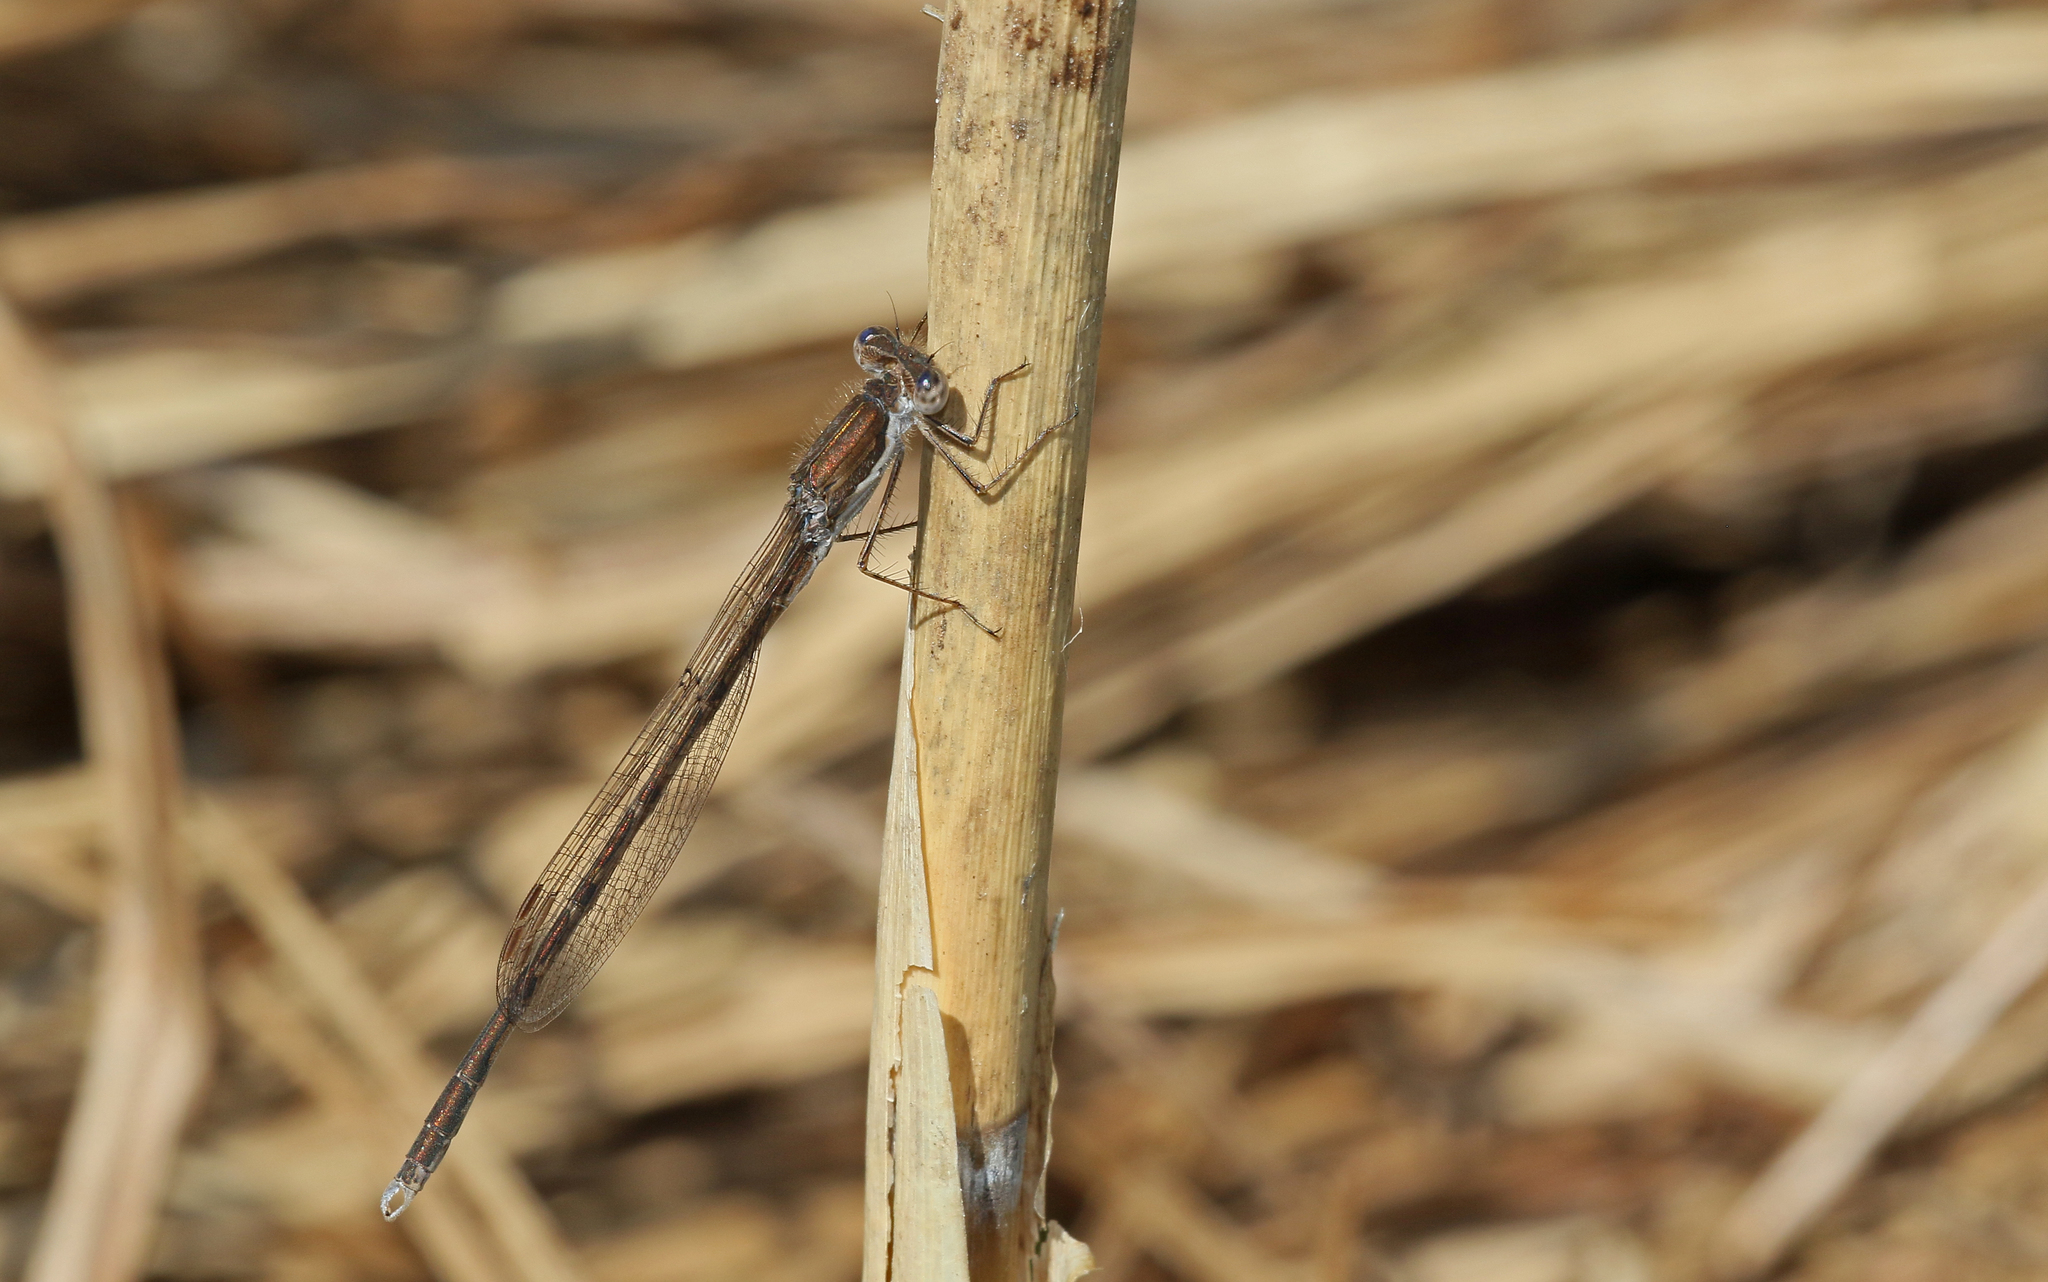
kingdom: Animalia
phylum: Arthropoda
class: Insecta
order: Odonata
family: Lestidae
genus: Sympecma
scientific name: Sympecma fusca
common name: Common winter damsel
